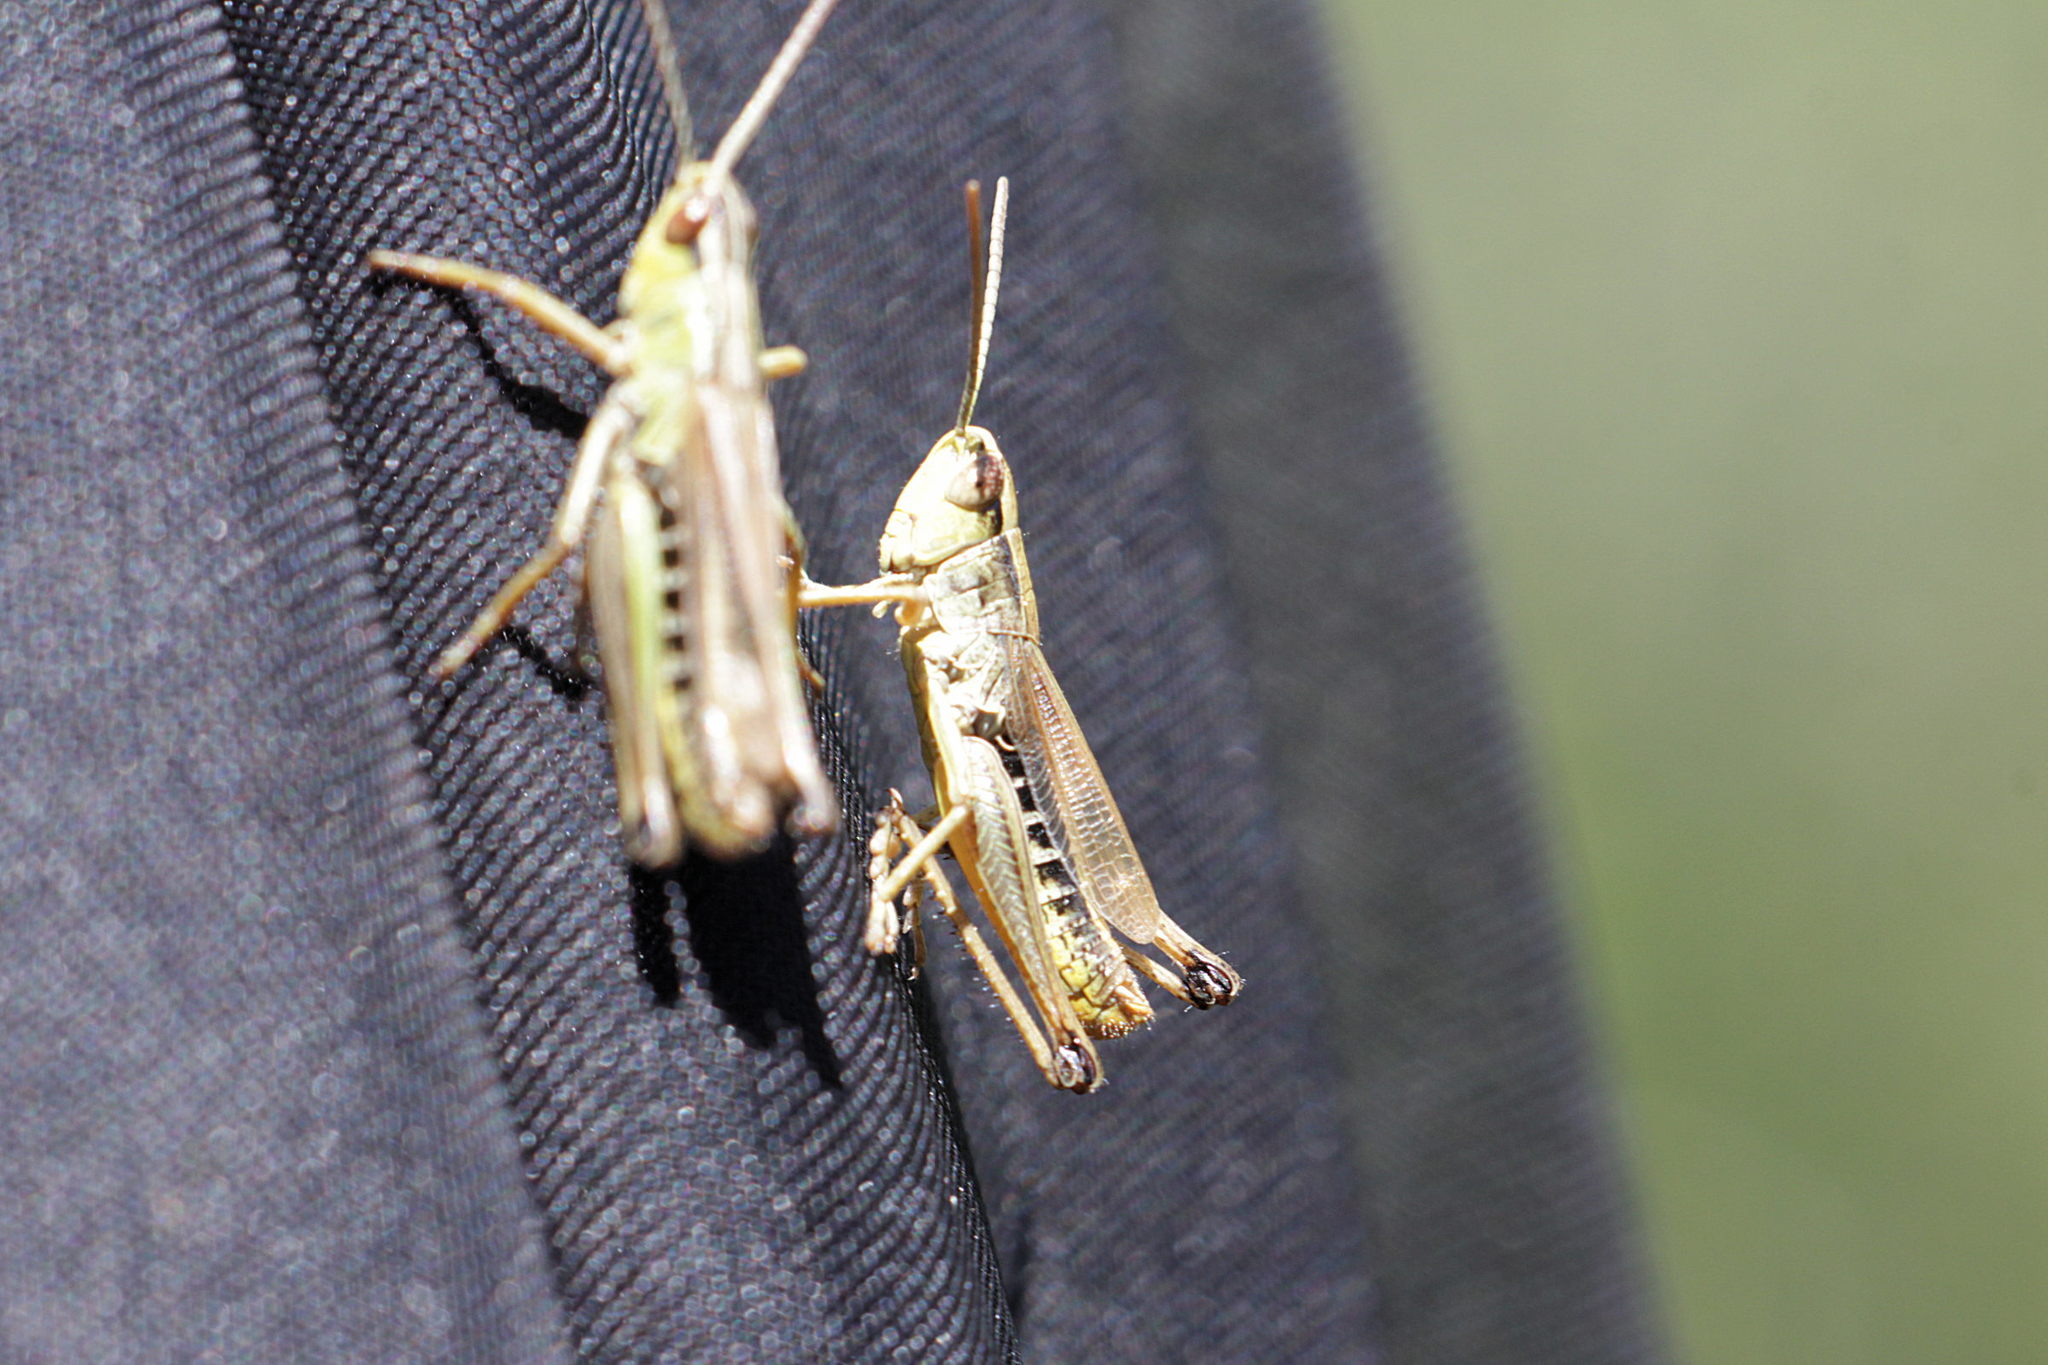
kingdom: Animalia
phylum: Arthropoda
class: Insecta
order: Orthoptera
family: Acrididae
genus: Pseudochorthippus
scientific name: Pseudochorthippus parallelus
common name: Meadow grasshopper
